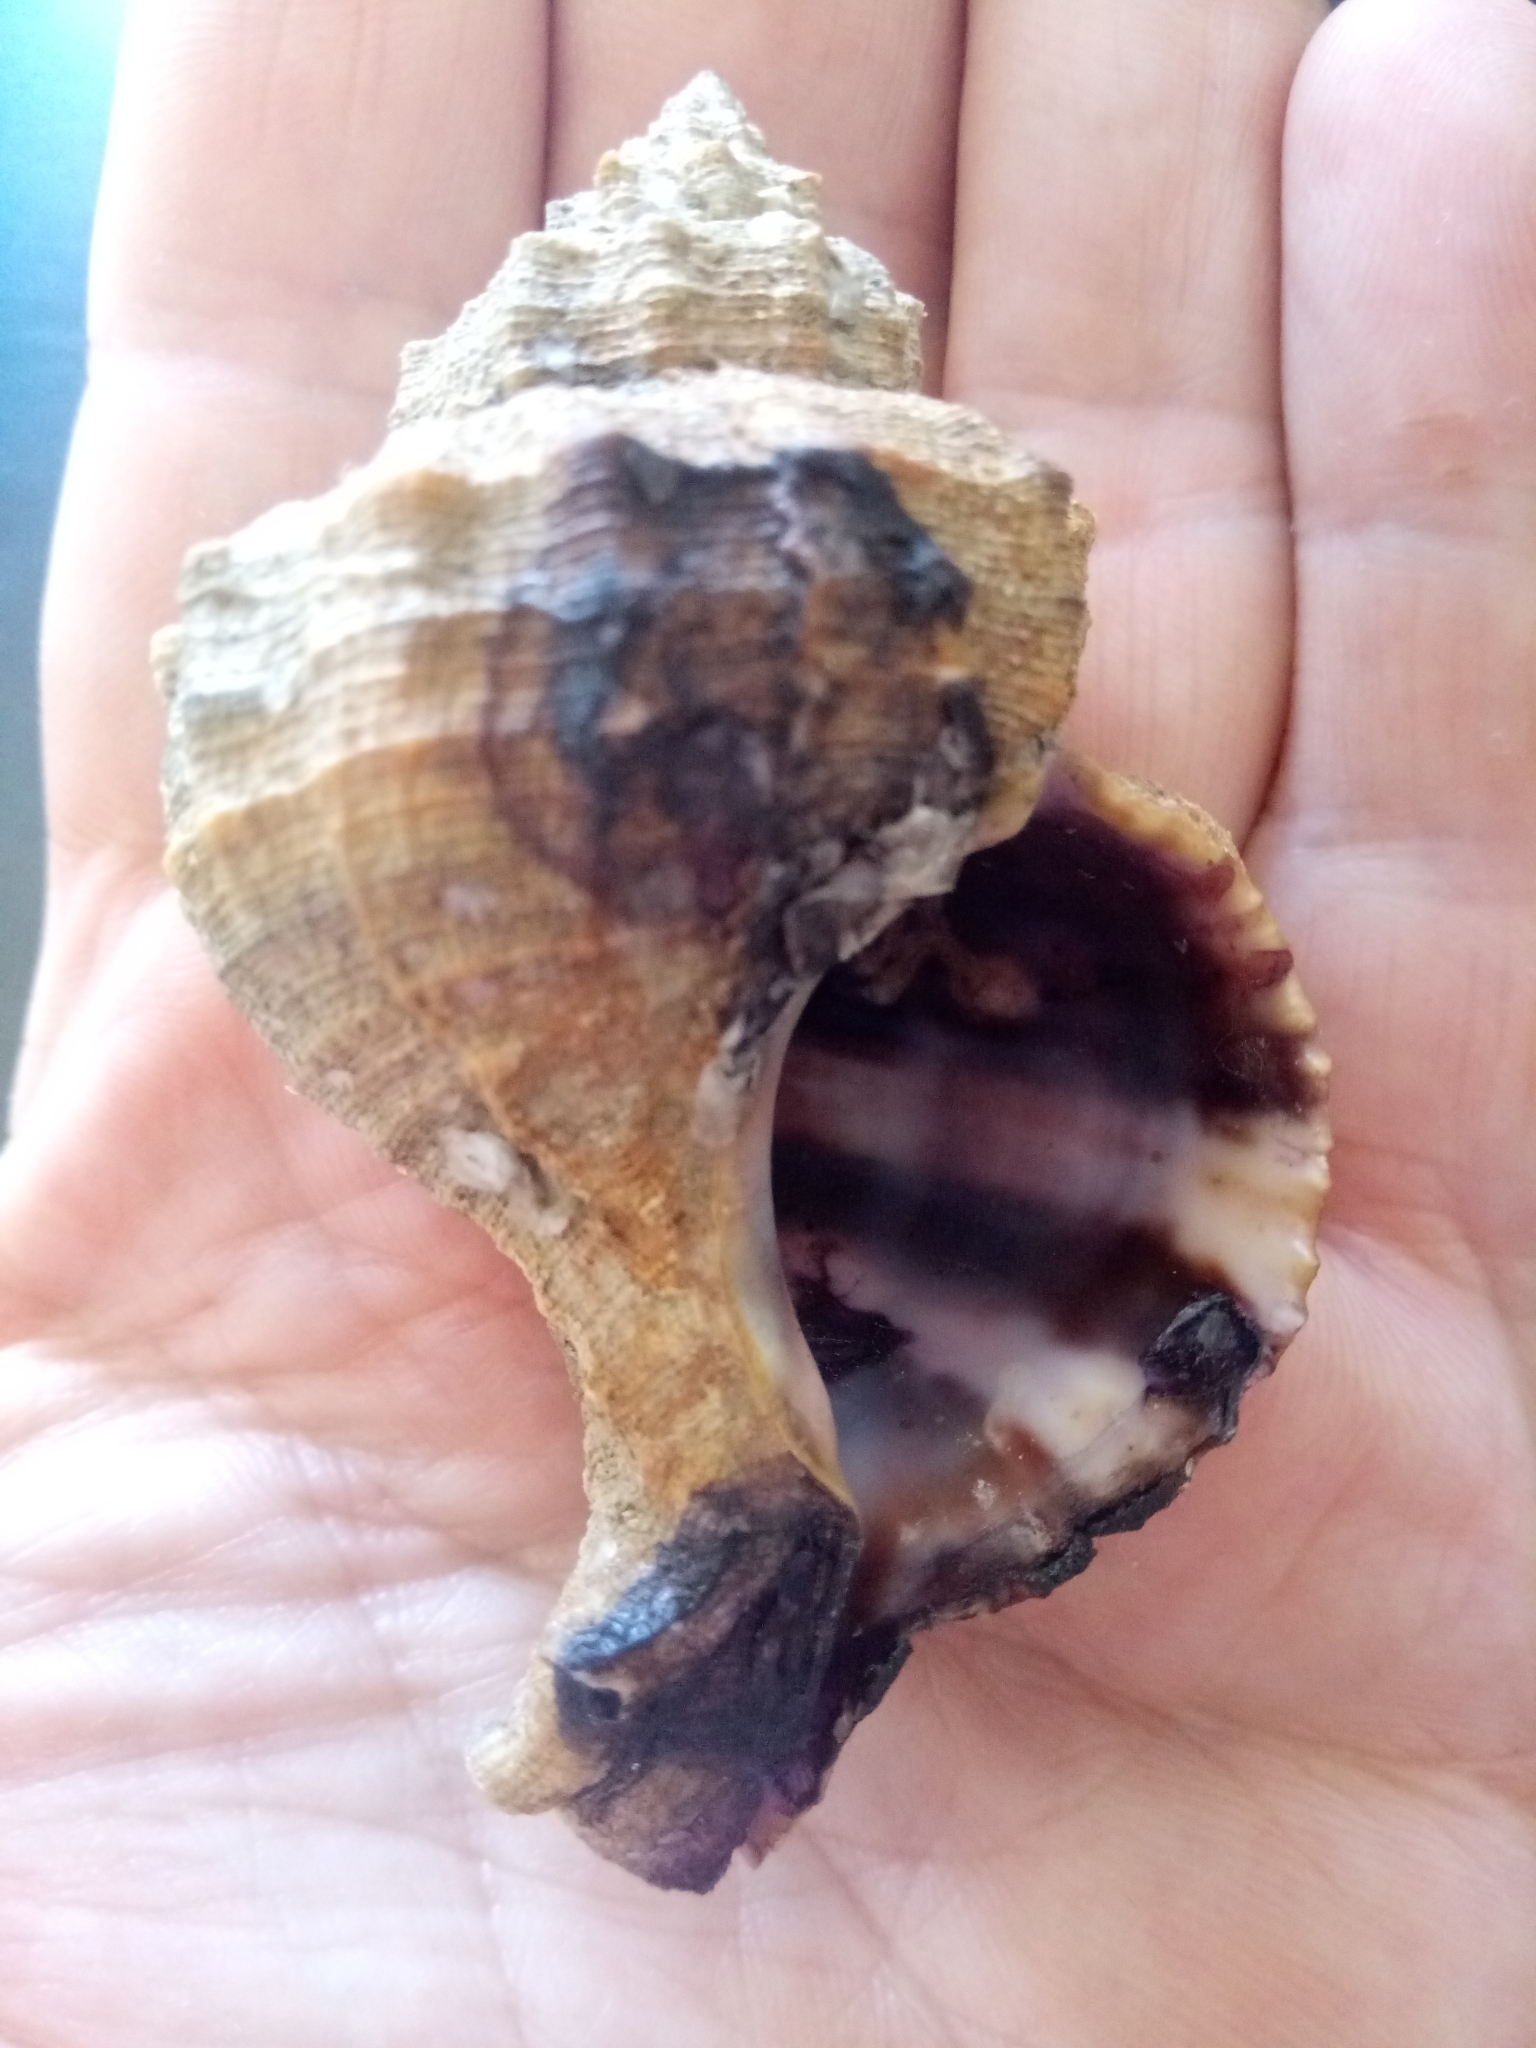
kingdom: Animalia
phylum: Mollusca
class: Gastropoda
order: Neogastropoda
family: Muricidae
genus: Hexaplex
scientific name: Hexaplex trunculus
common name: Banded dye-murex
